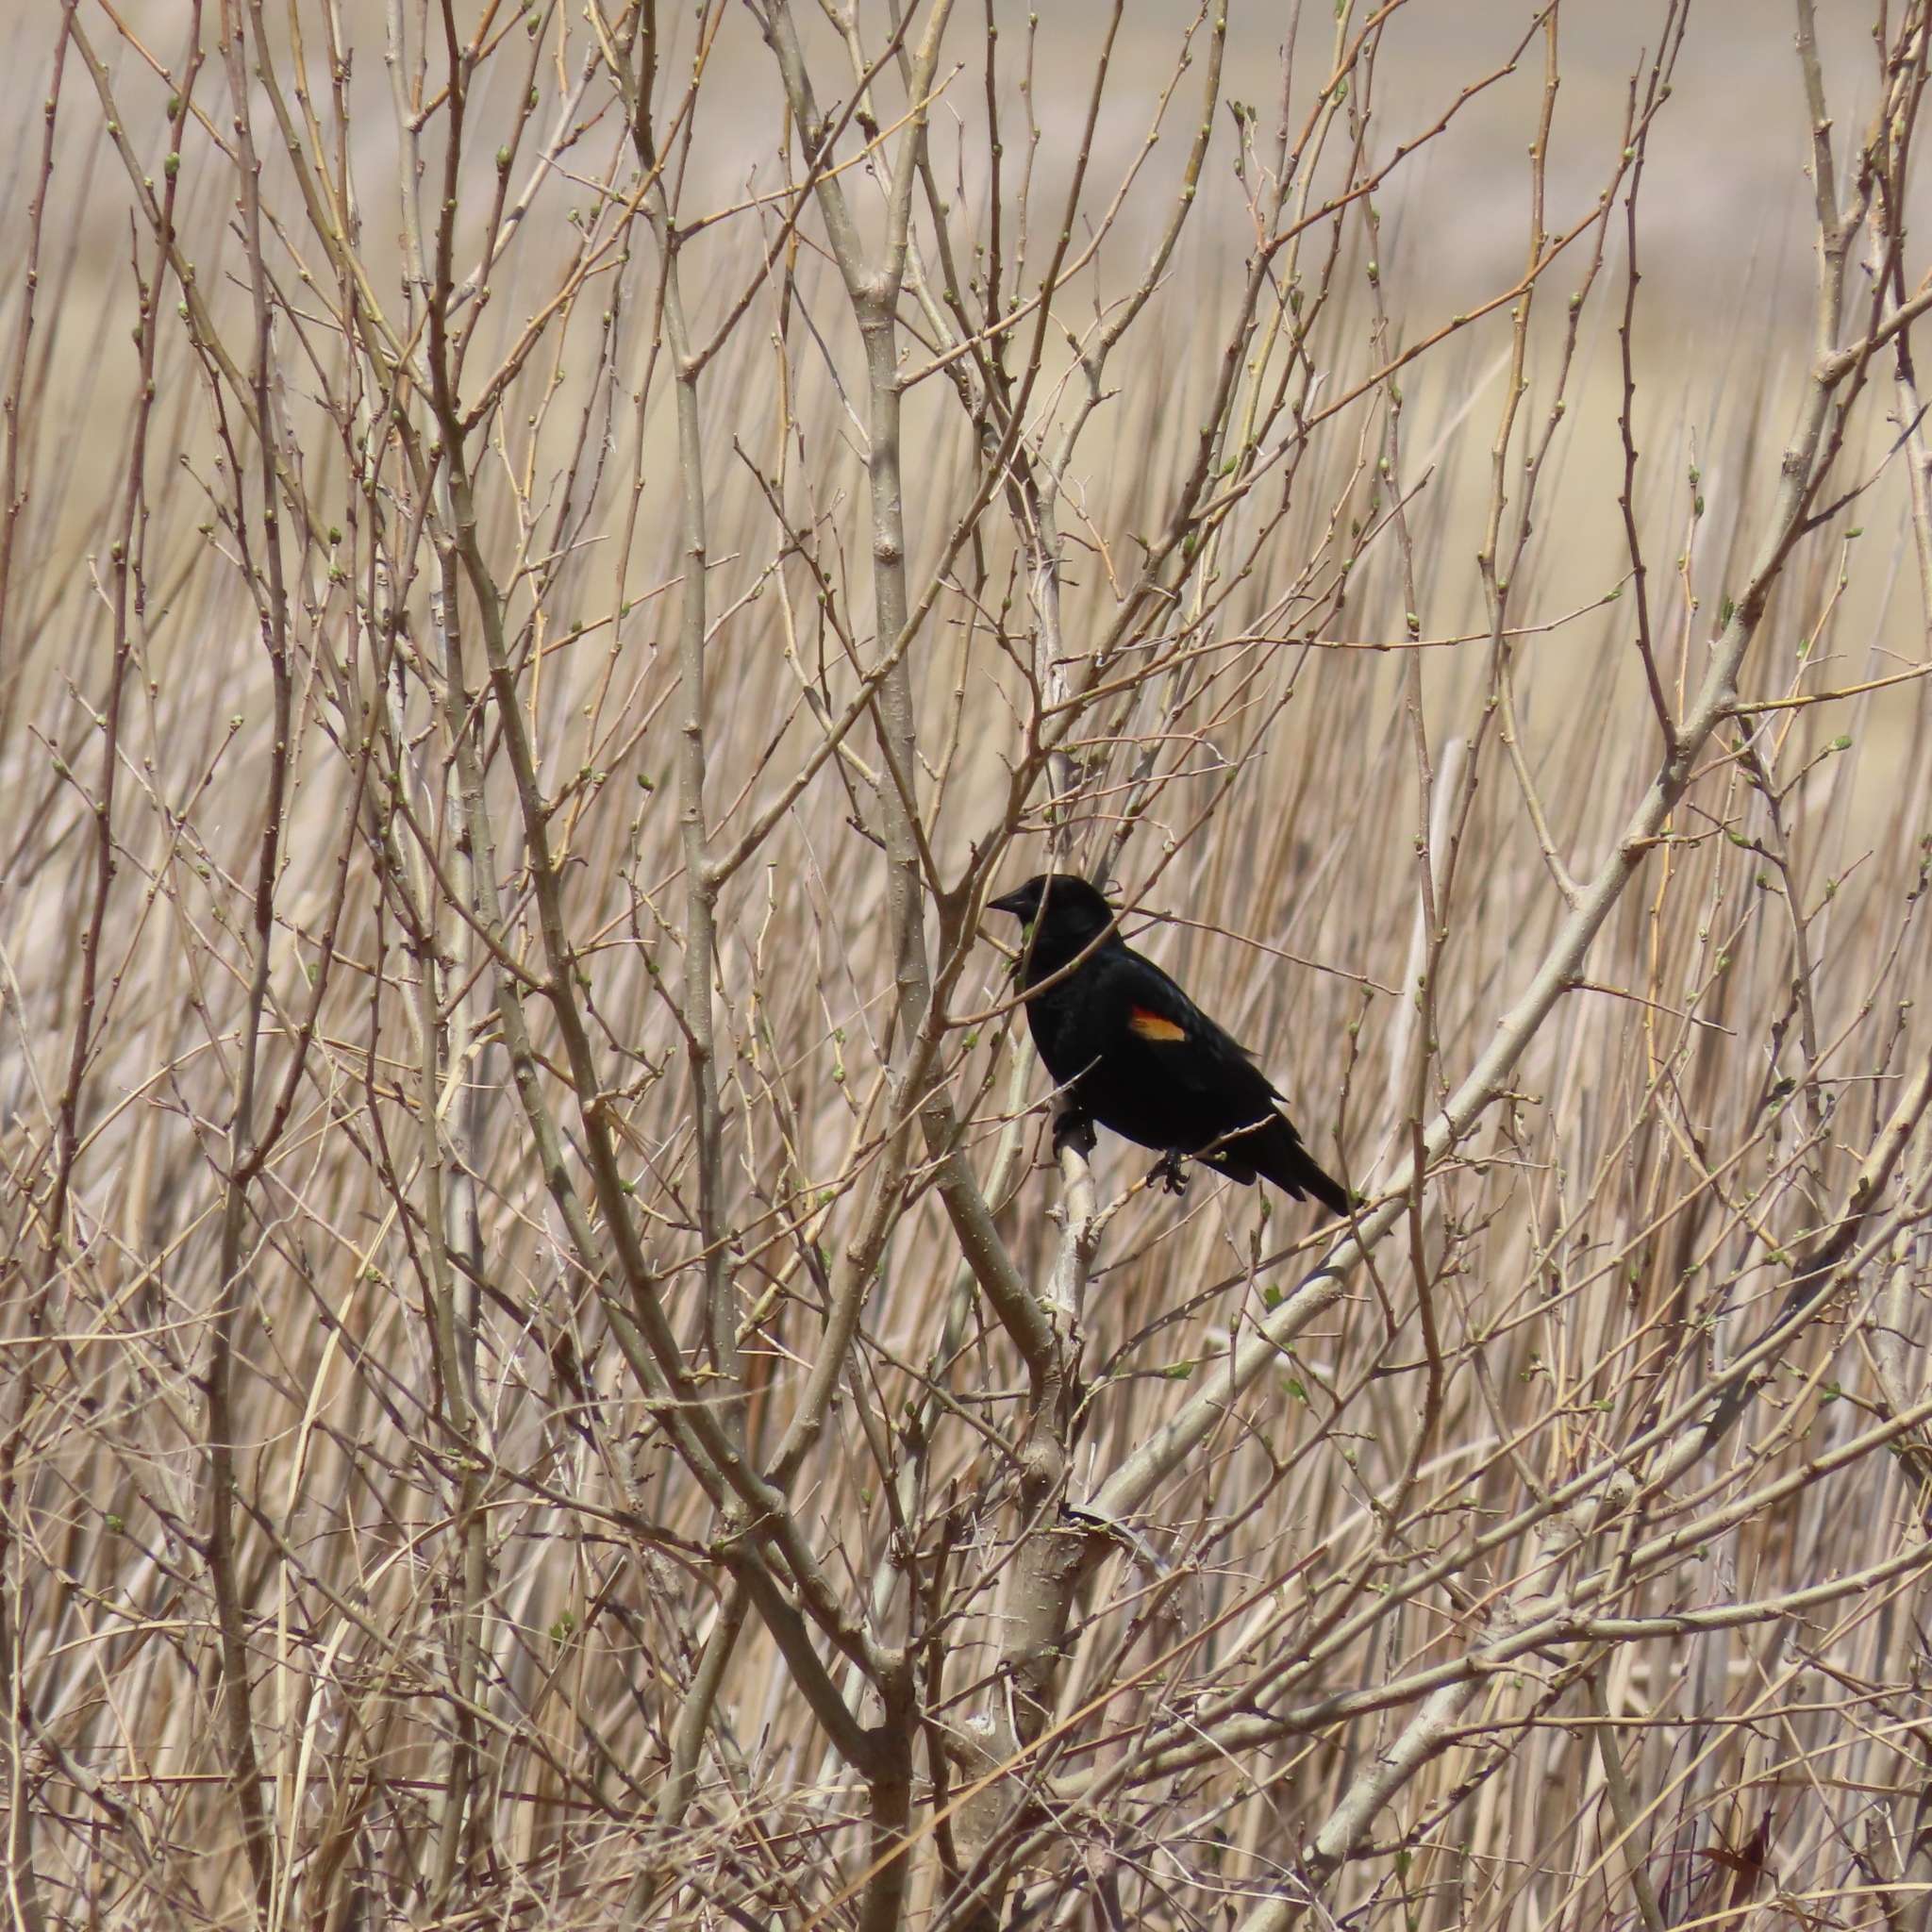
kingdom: Animalia
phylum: Chordata
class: Aves
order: Passeriformes
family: Icteridae
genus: Agelaius
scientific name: Agelaius phoeniceus
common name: Red-winged blackbird
